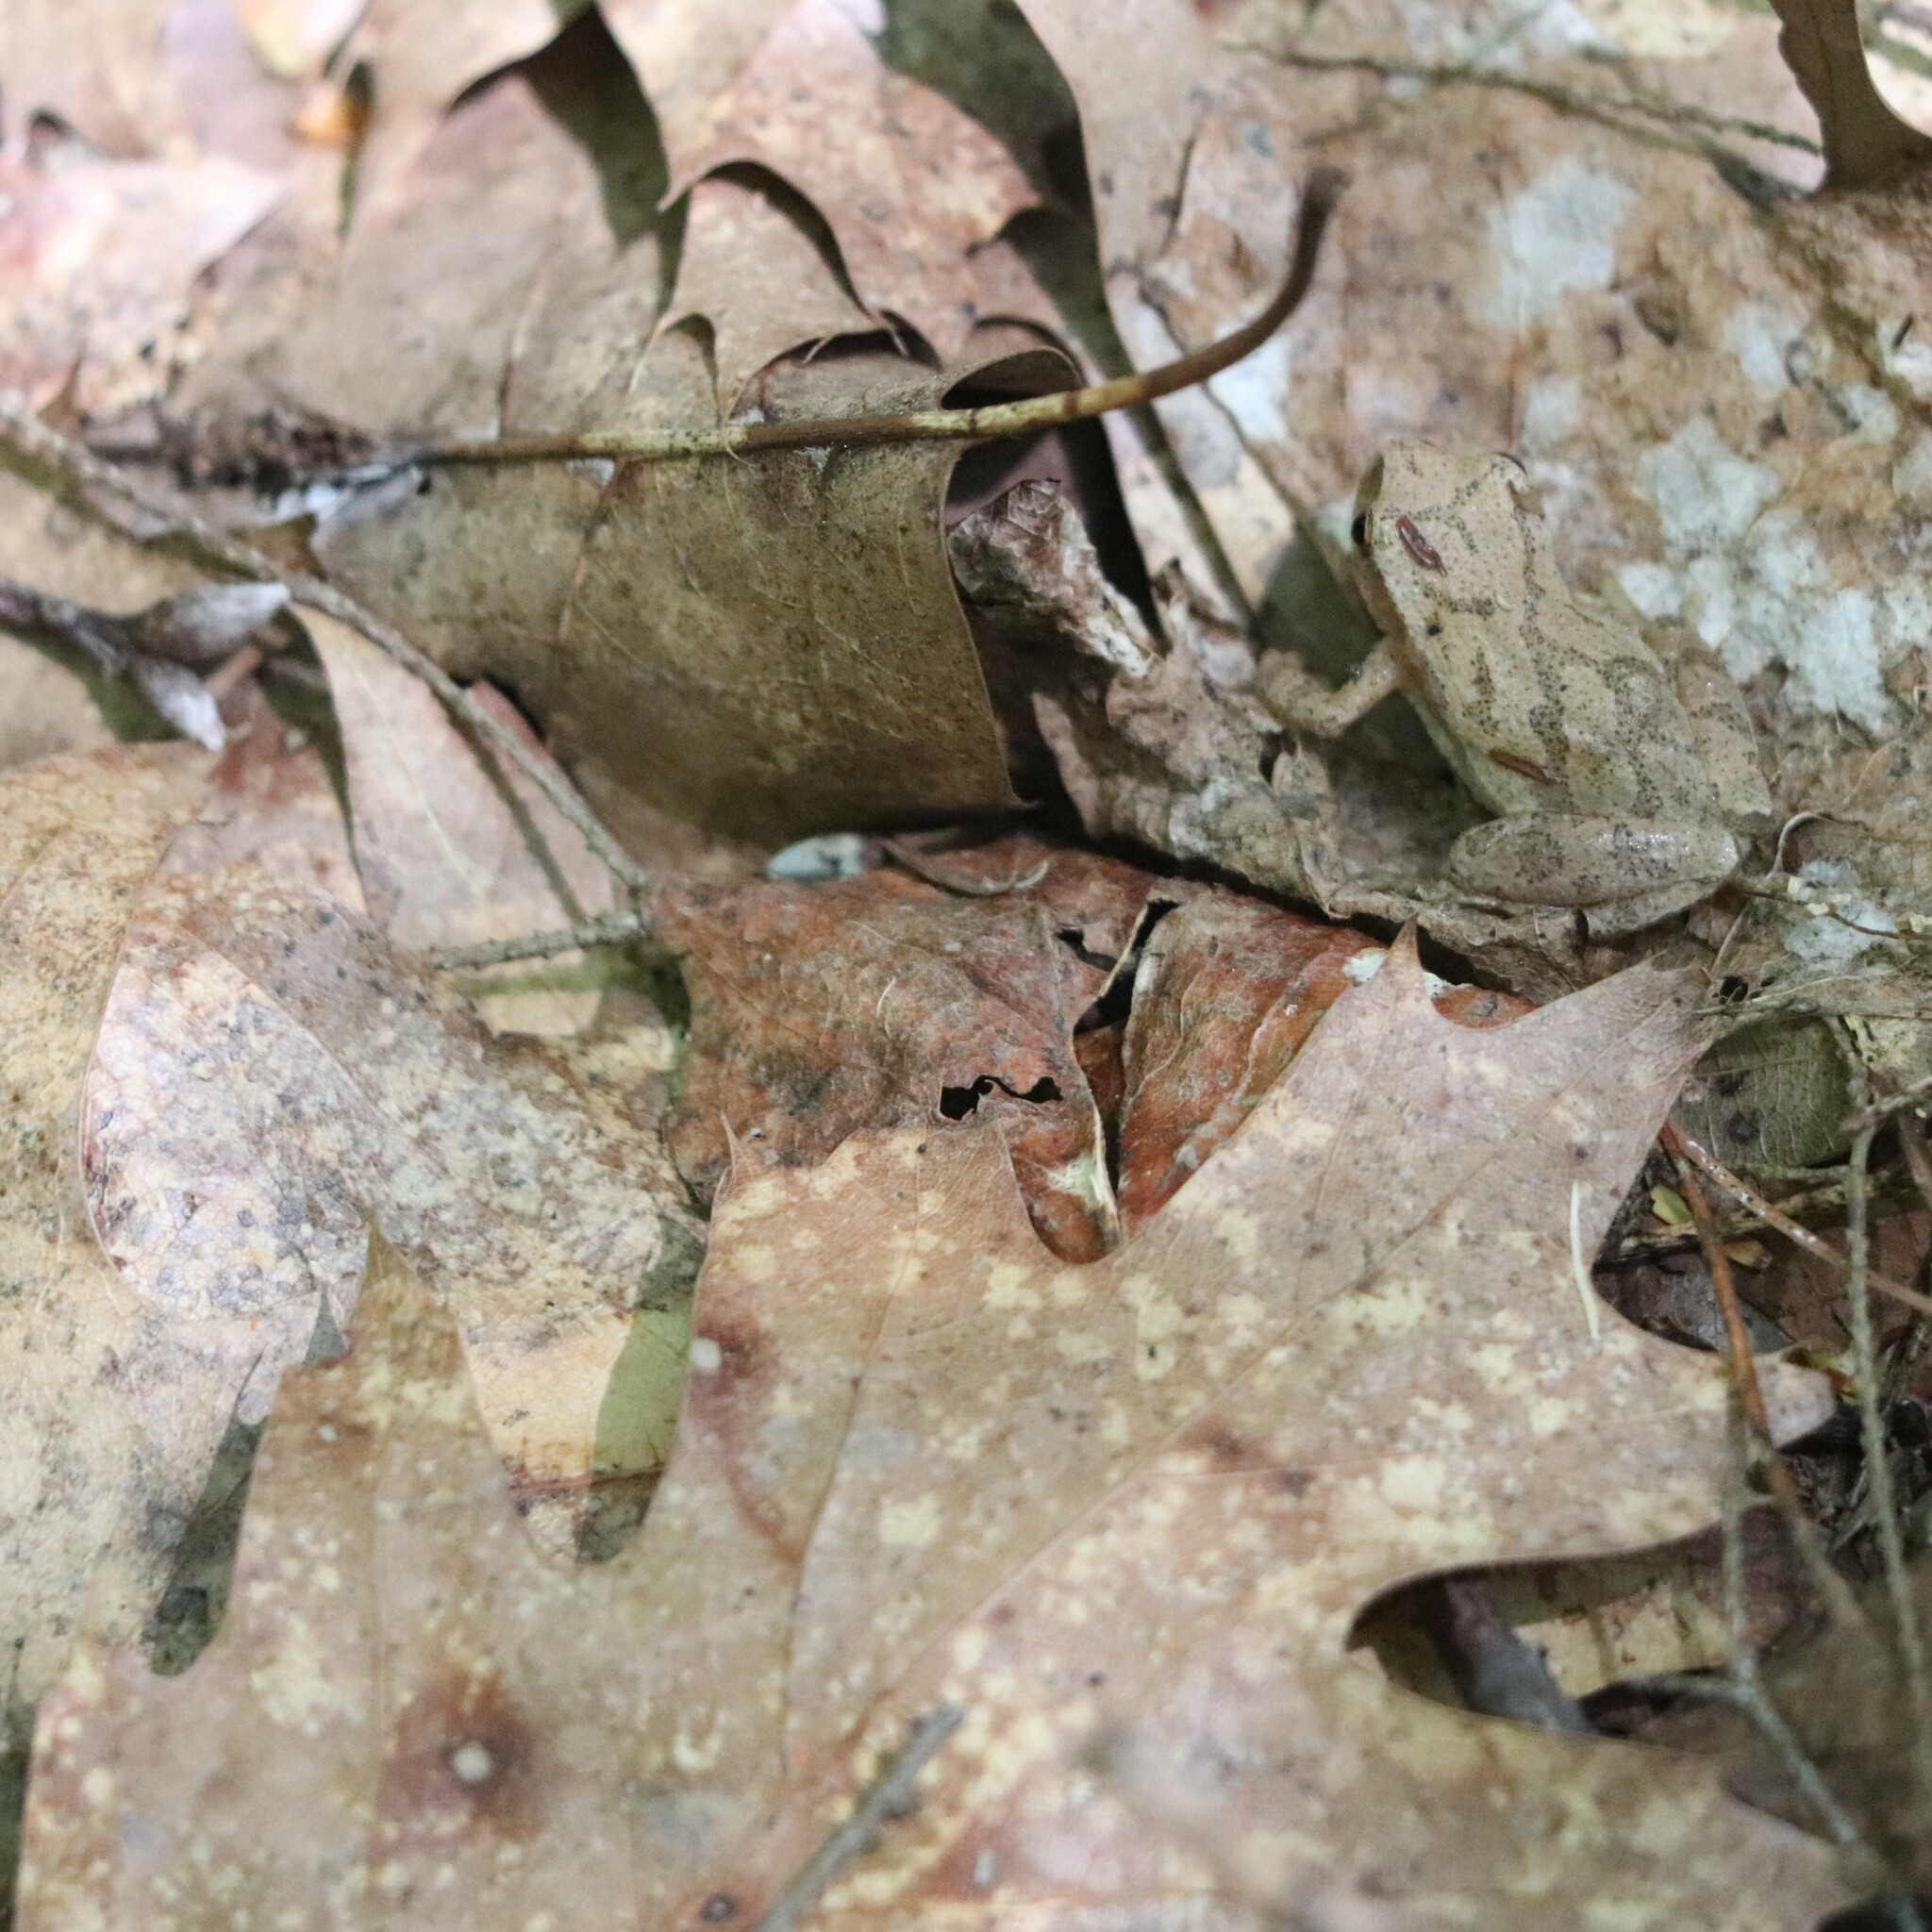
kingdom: Animalia
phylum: Chordata
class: Amphibia
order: Anura
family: Hylidae
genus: Pseudacris
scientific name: Pseudacris crucifer
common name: Spring peeper
